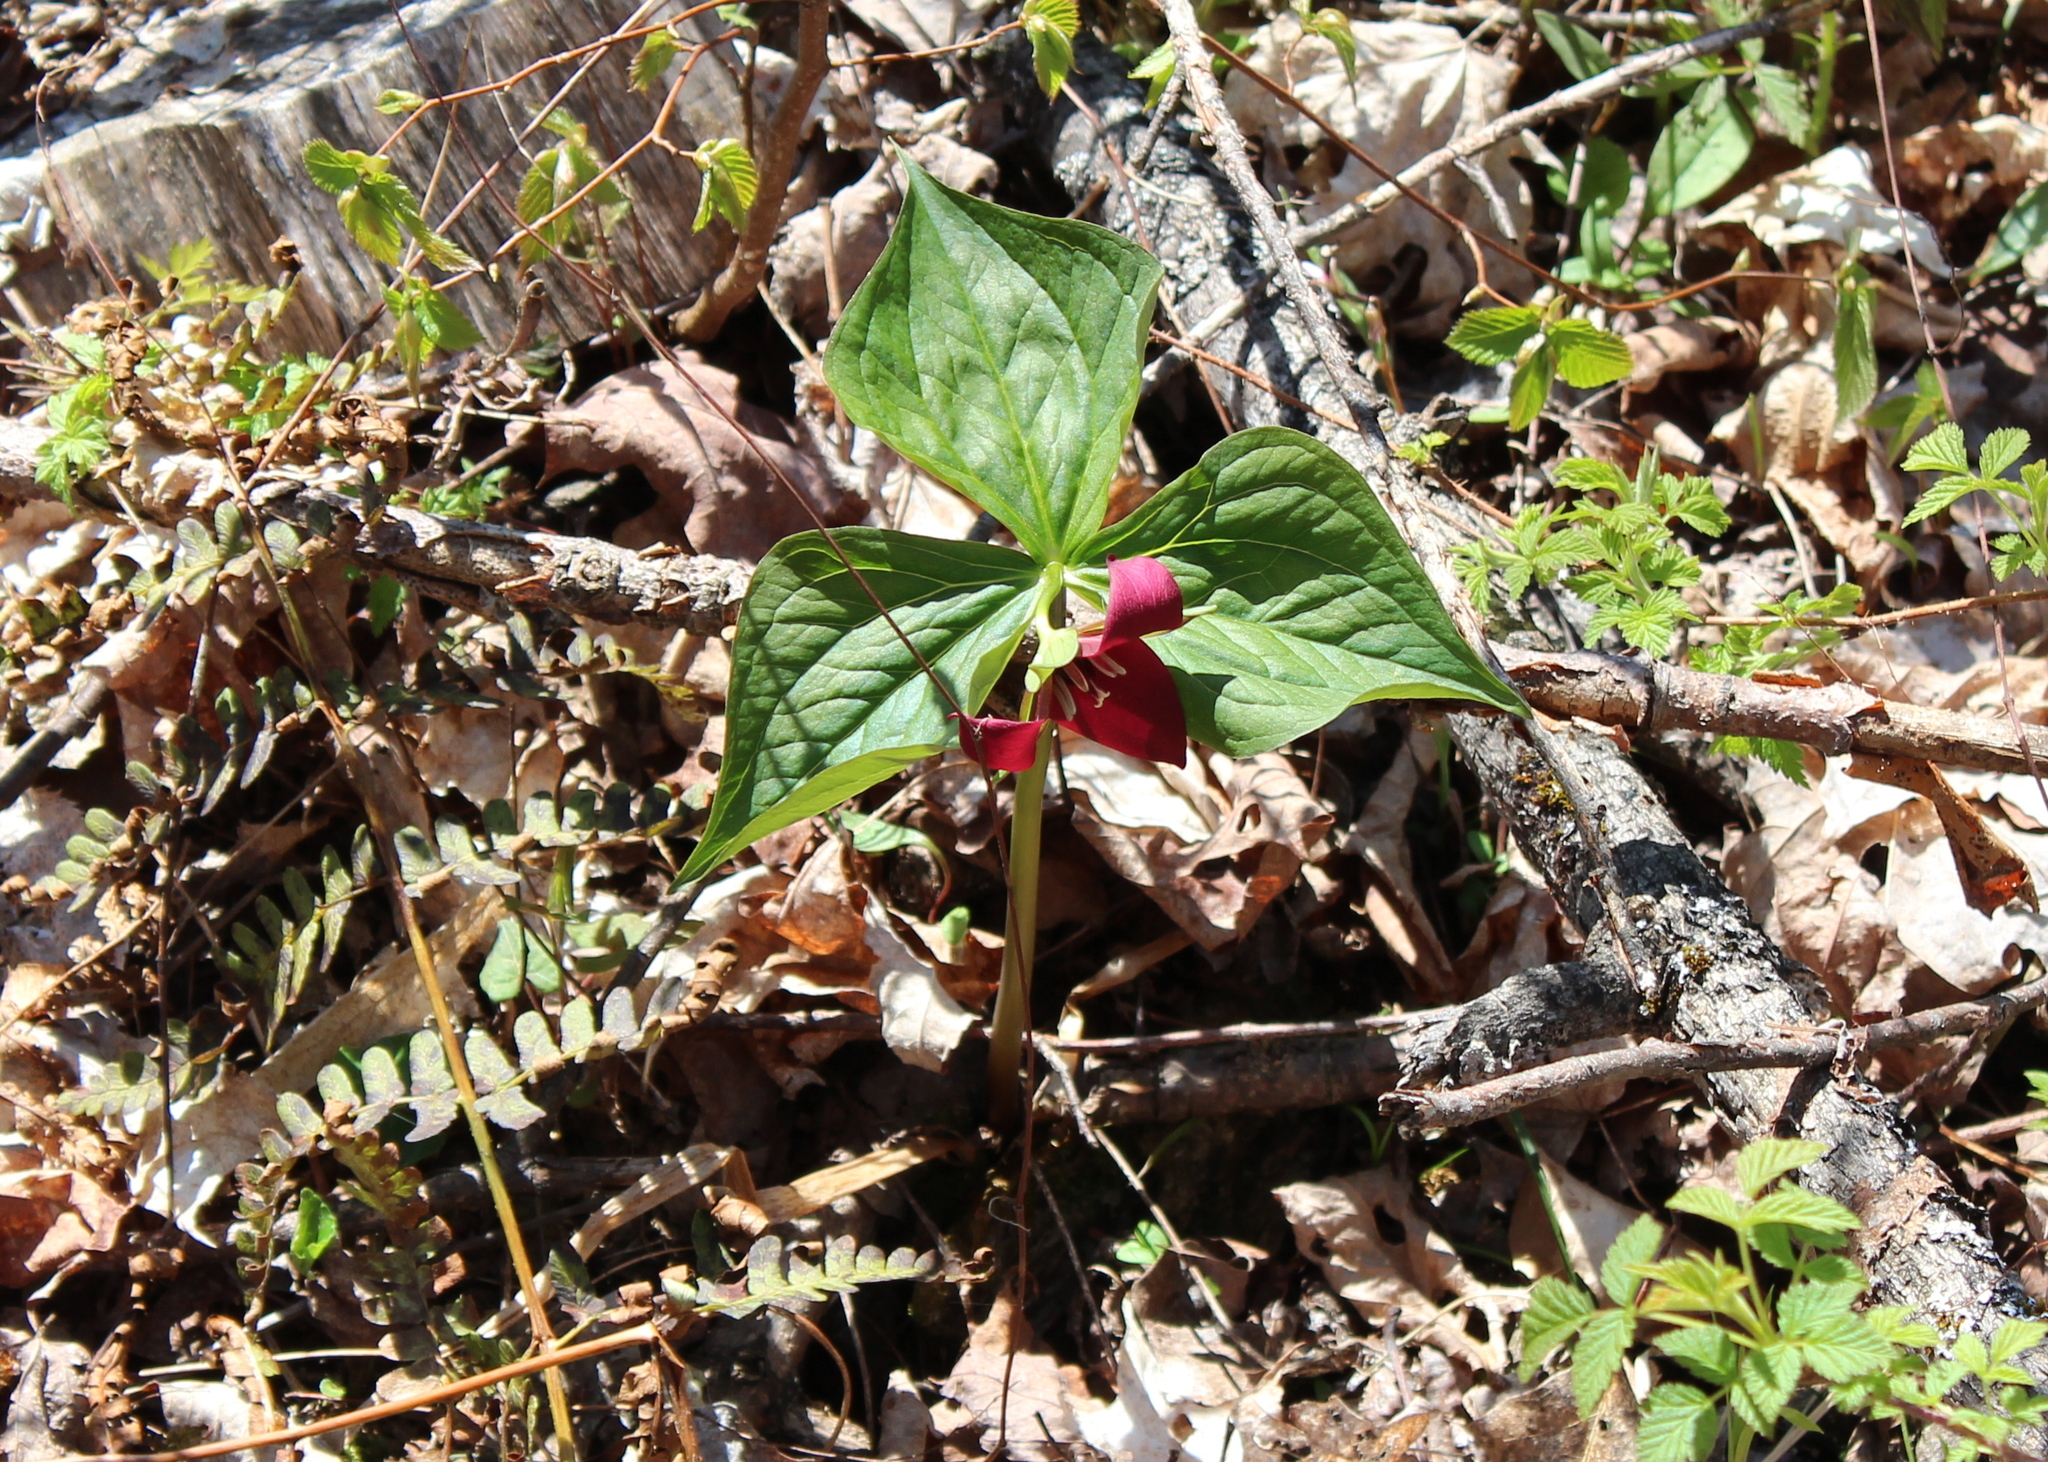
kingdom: Plantae
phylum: Tracheophyta
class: Liliopsida
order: Liliales
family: Melanthiaceae
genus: Trillium
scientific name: Trillium erectum
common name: Purple trillium
